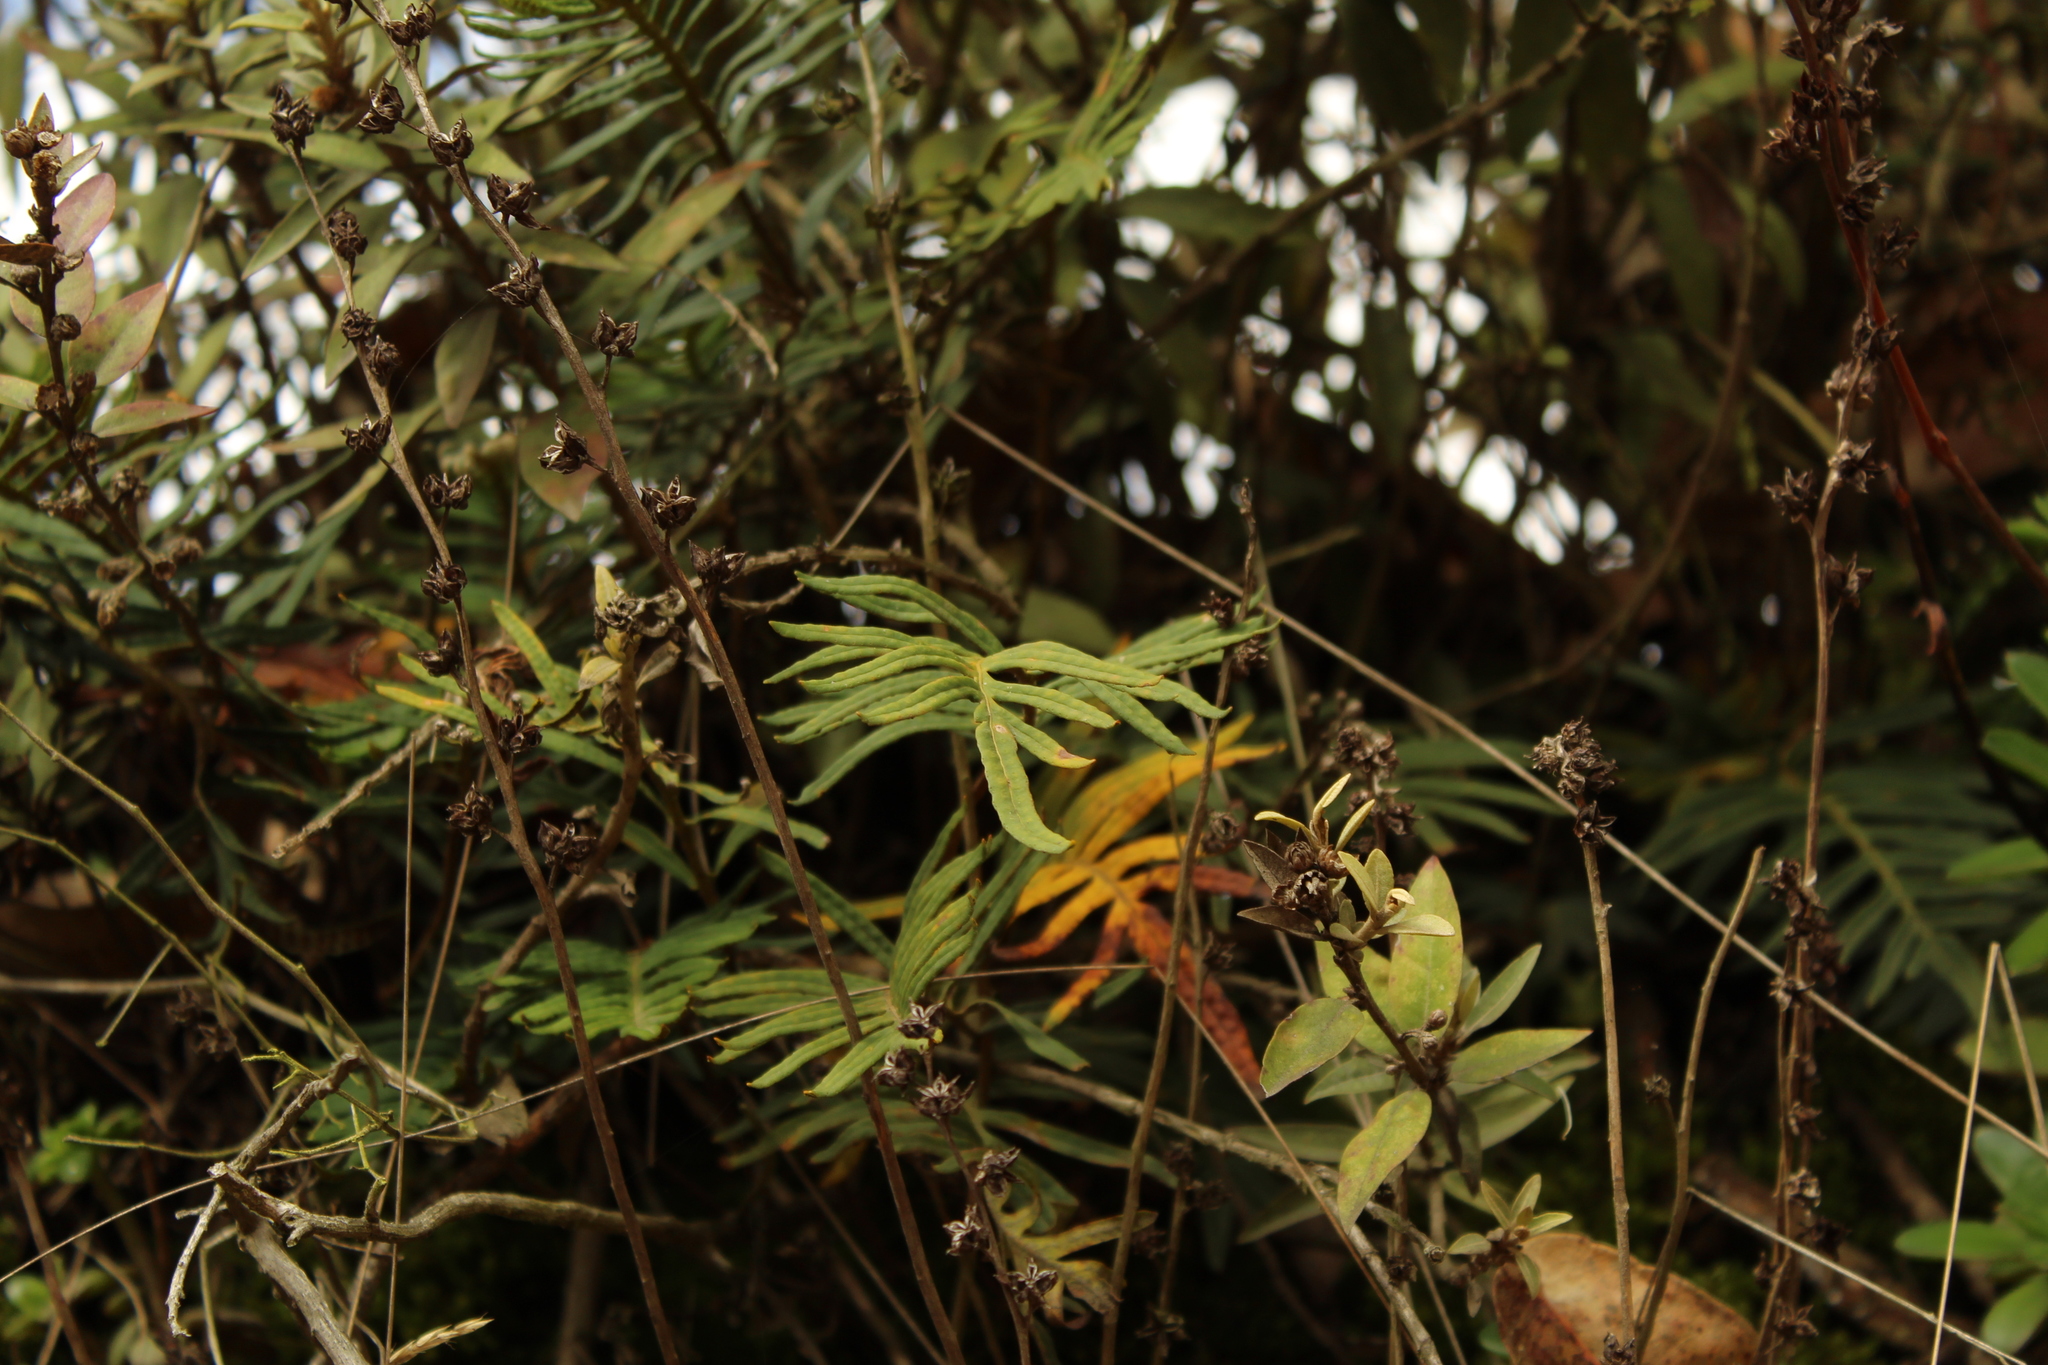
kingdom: Plantae
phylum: Tracheophyta
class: Polypodiopsida
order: Polypodiales
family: Polypodiaceae
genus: Pleopeltis
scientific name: Pleopeltis orientalis
